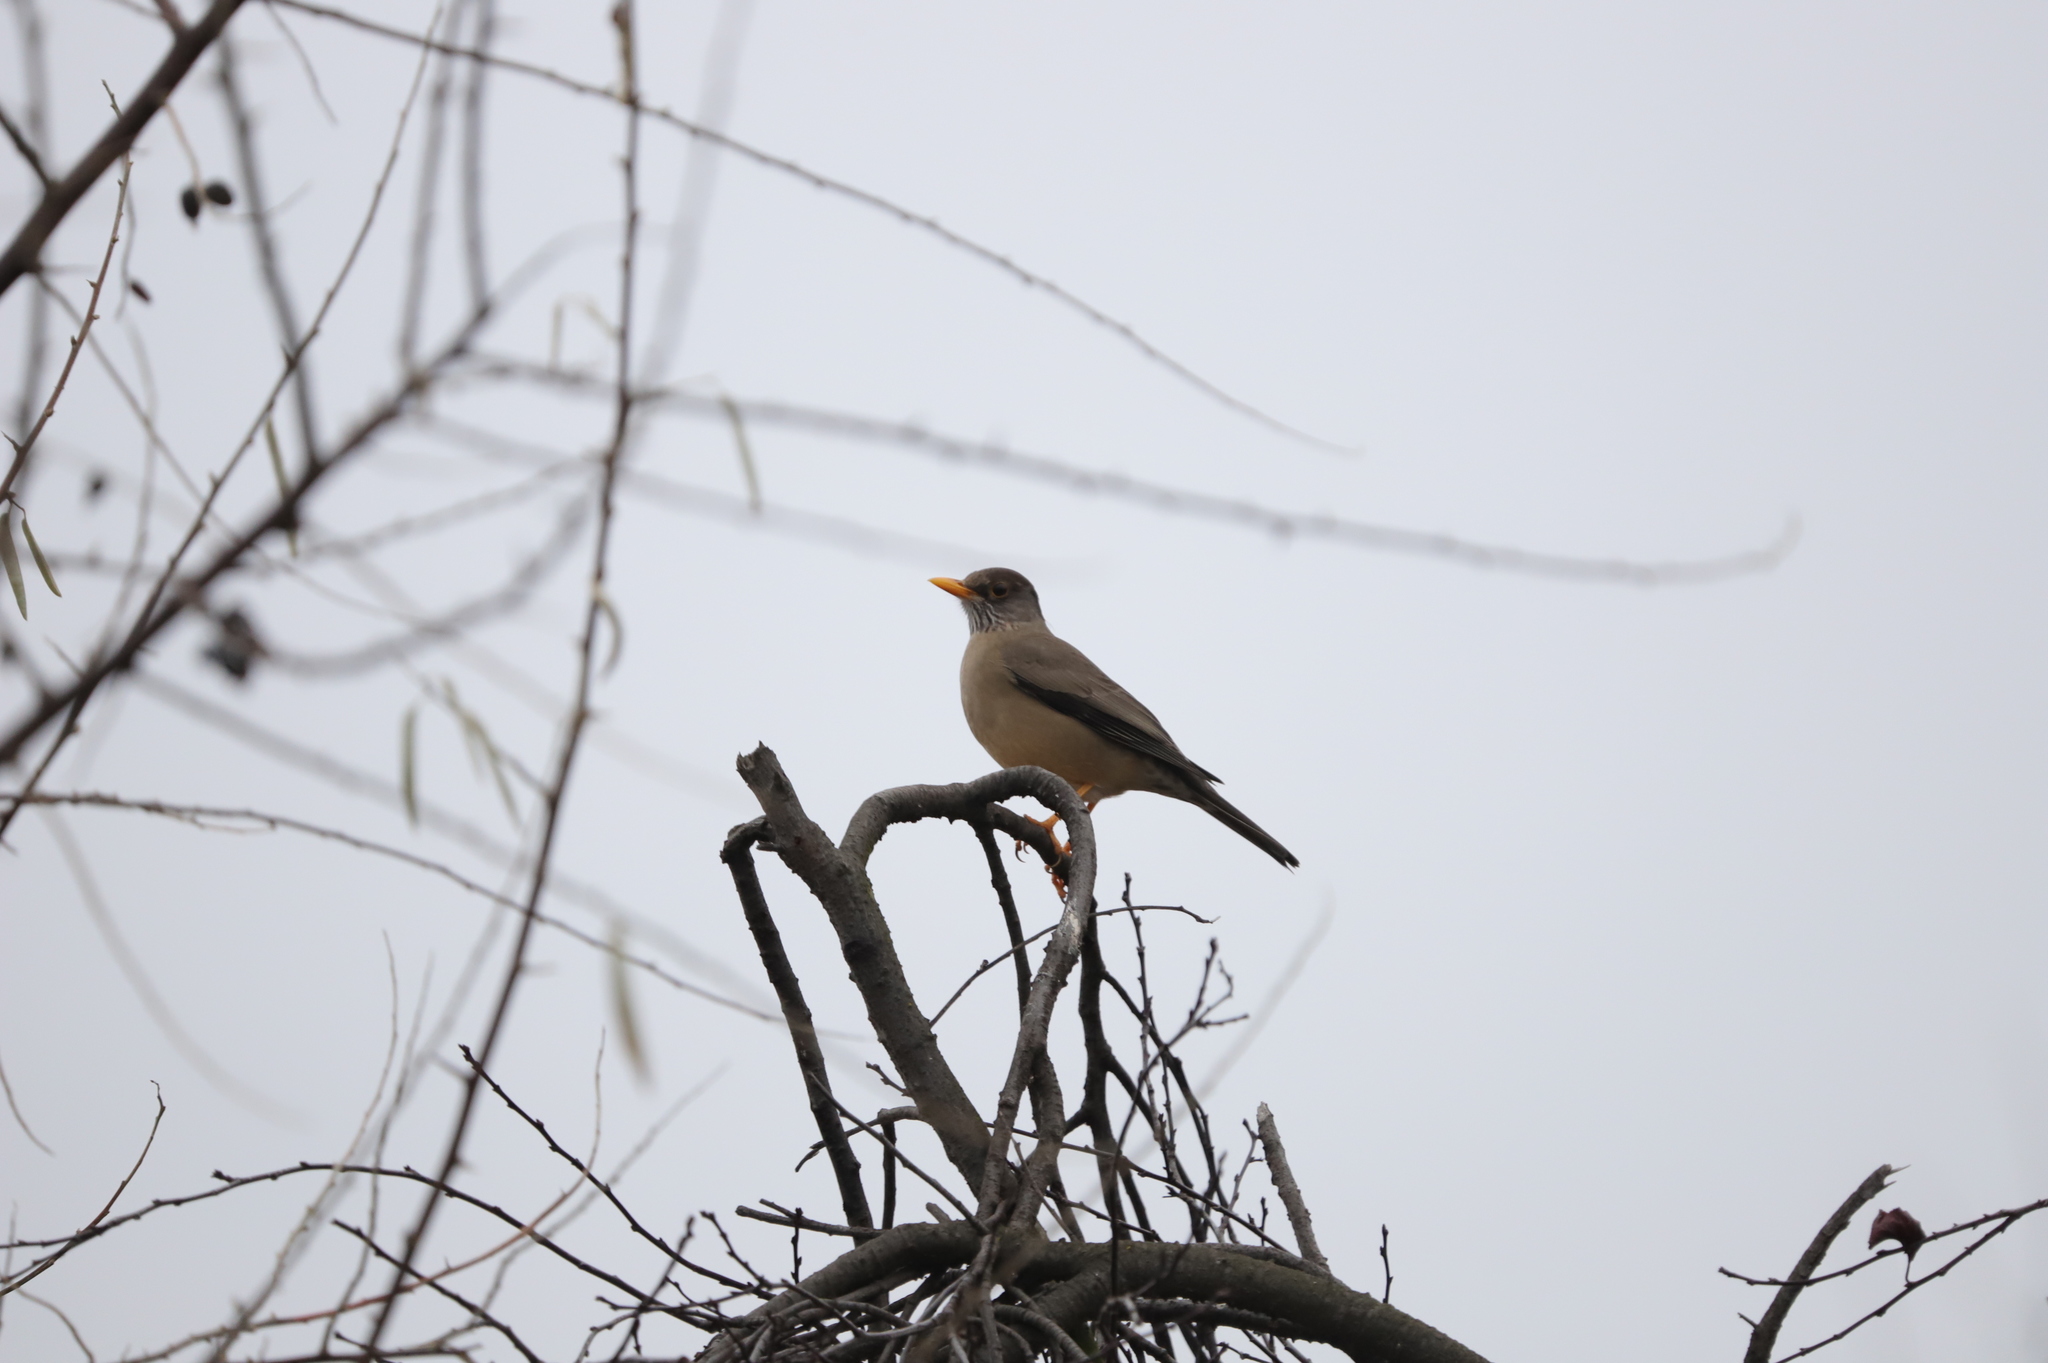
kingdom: Animalia
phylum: Chordata
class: Aves
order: Passeriformes
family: Turdidae
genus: Turdus
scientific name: Turdus falcklandii
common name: Austral thrush
